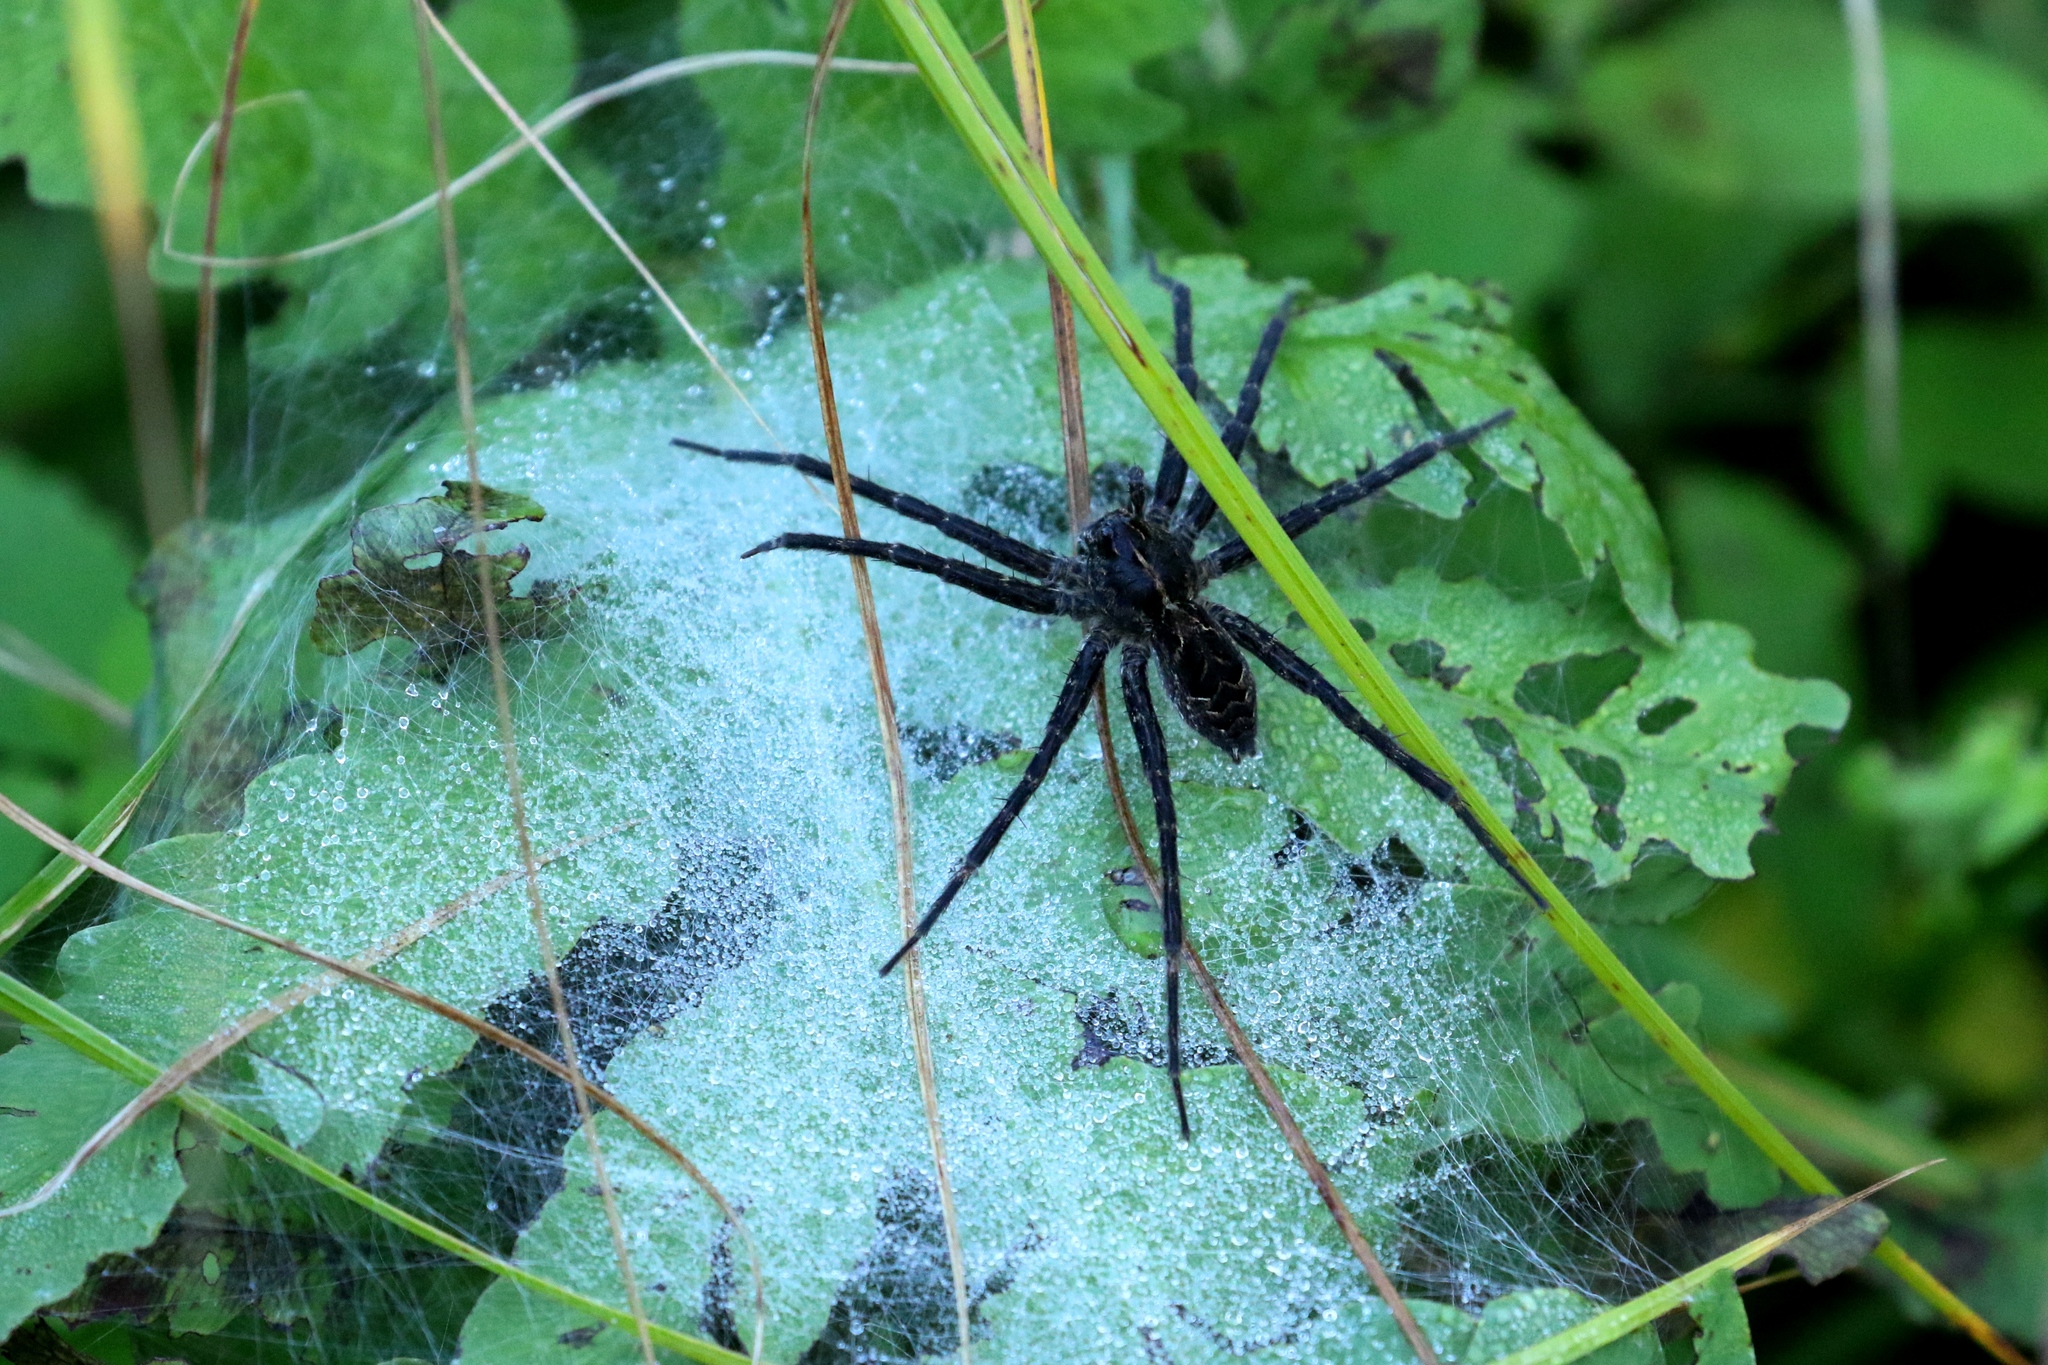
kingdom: Animalia
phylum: Arthropoda
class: Arachnida
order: Araneae
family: Pisauridae
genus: Dolomedes
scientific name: Dolomedes scriptus
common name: Striped fishing spider
